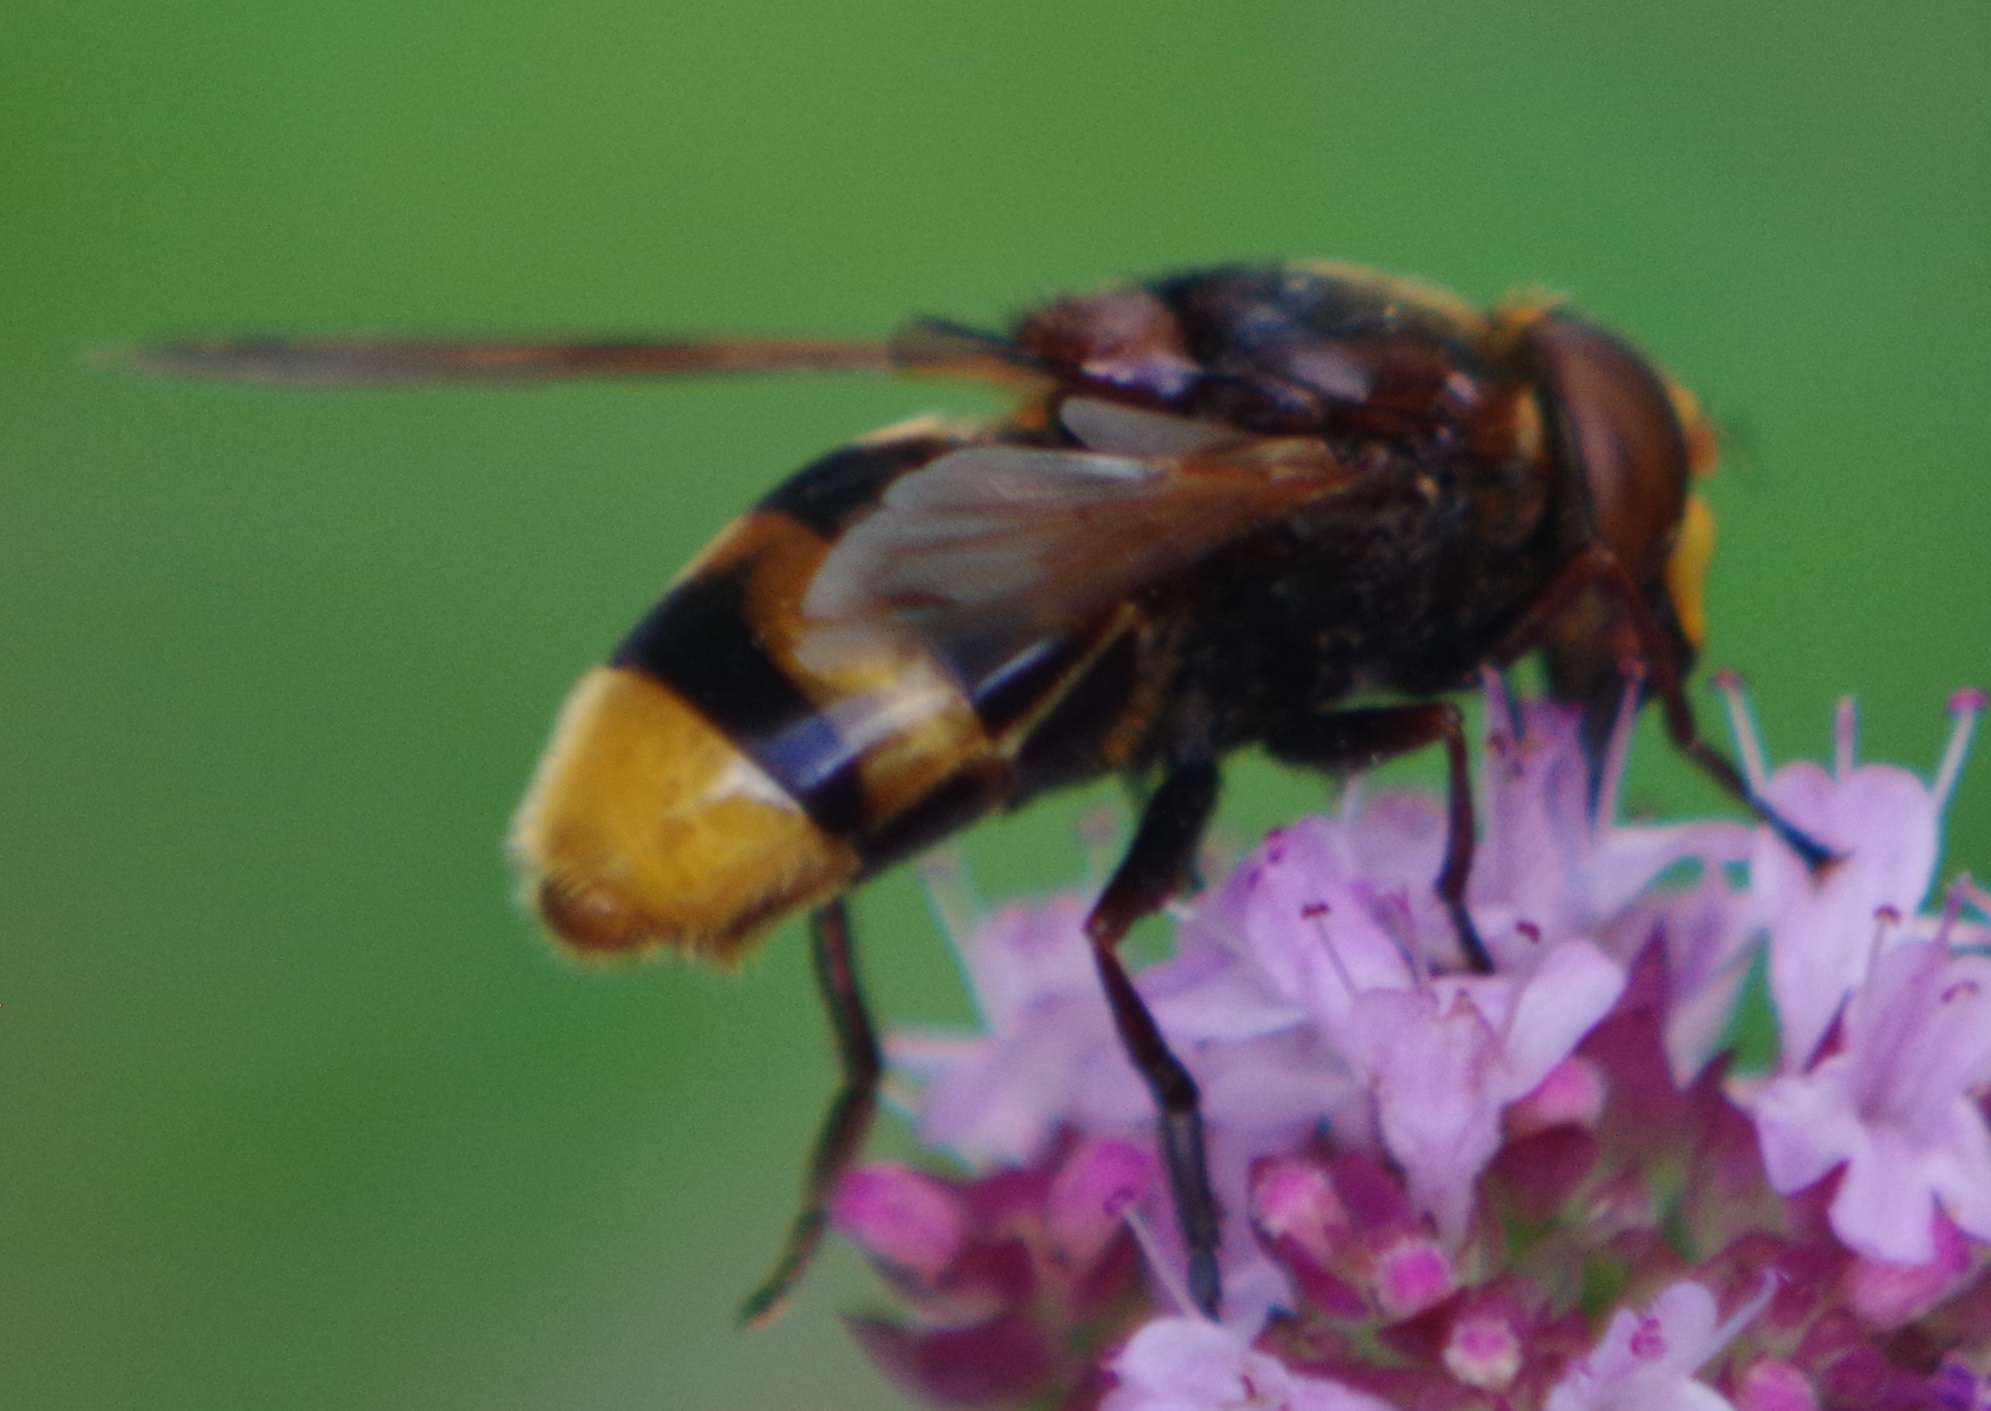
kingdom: Animalia
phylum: Arthropoda
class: Insecta
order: Diptera
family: Syrphidae
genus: Volucella
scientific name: Volucella zonaria
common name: Hornet hoverfly
